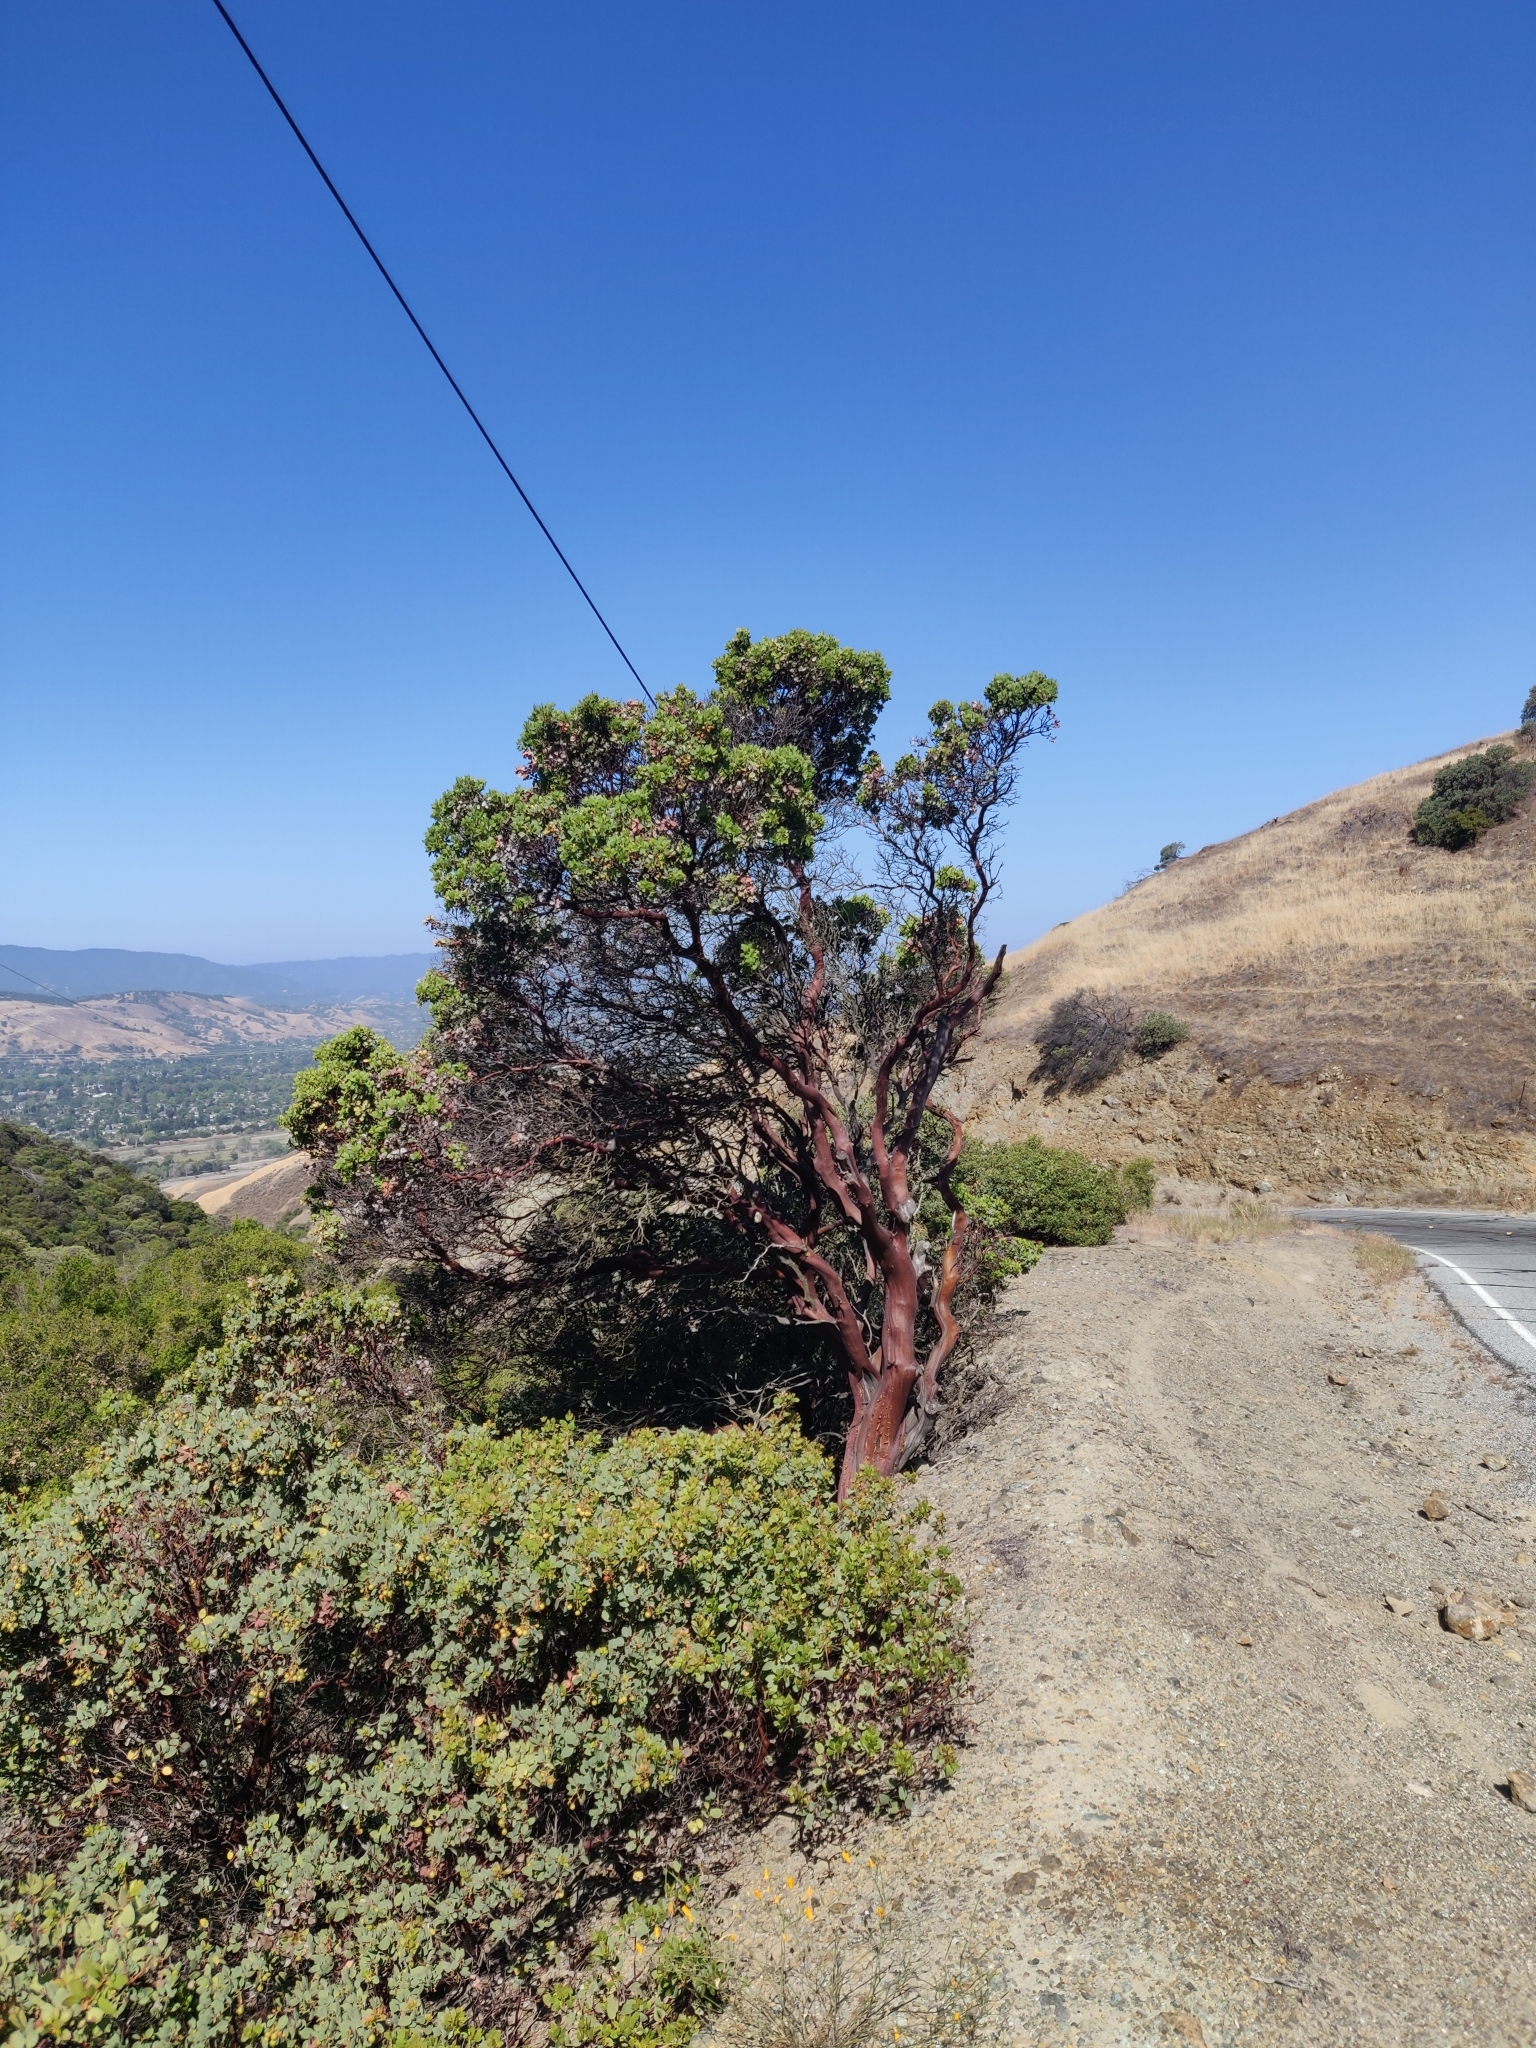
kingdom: Plantae
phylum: Tracheophyta
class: Magnoliopsida
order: Ericales
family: Ericaceae
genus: Arctostaphylos
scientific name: Arctostaphylos glauca
